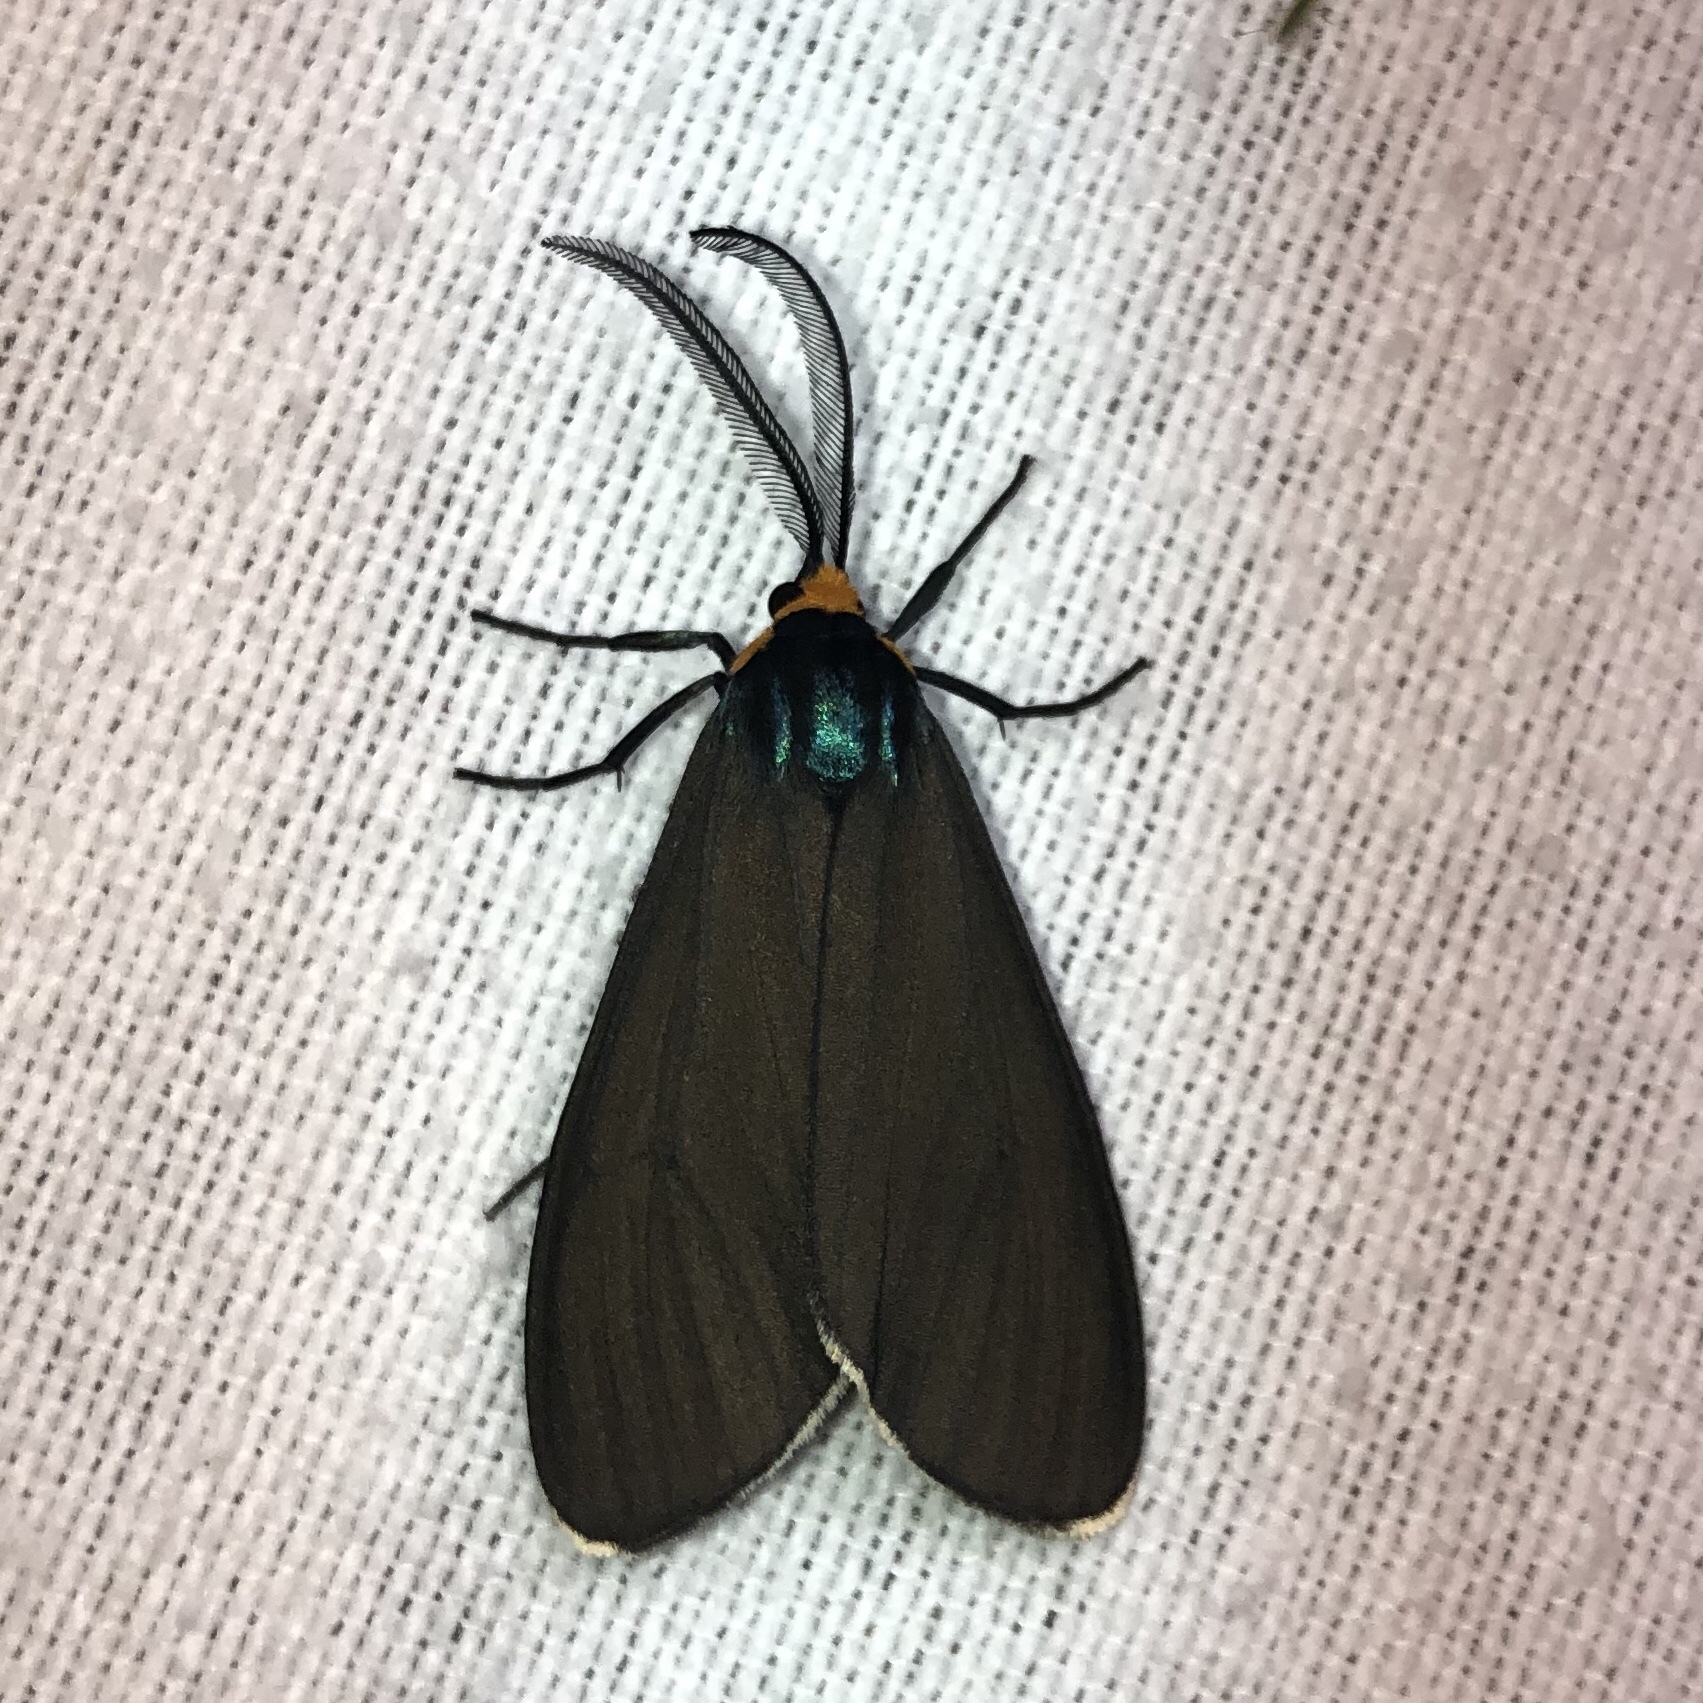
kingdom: Animalia
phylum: Arthropoda
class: Insecta
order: Lepidoptera
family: Erebidae
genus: Ctenucha
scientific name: Ctenucha virginica
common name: Virginia ctenucha moth
